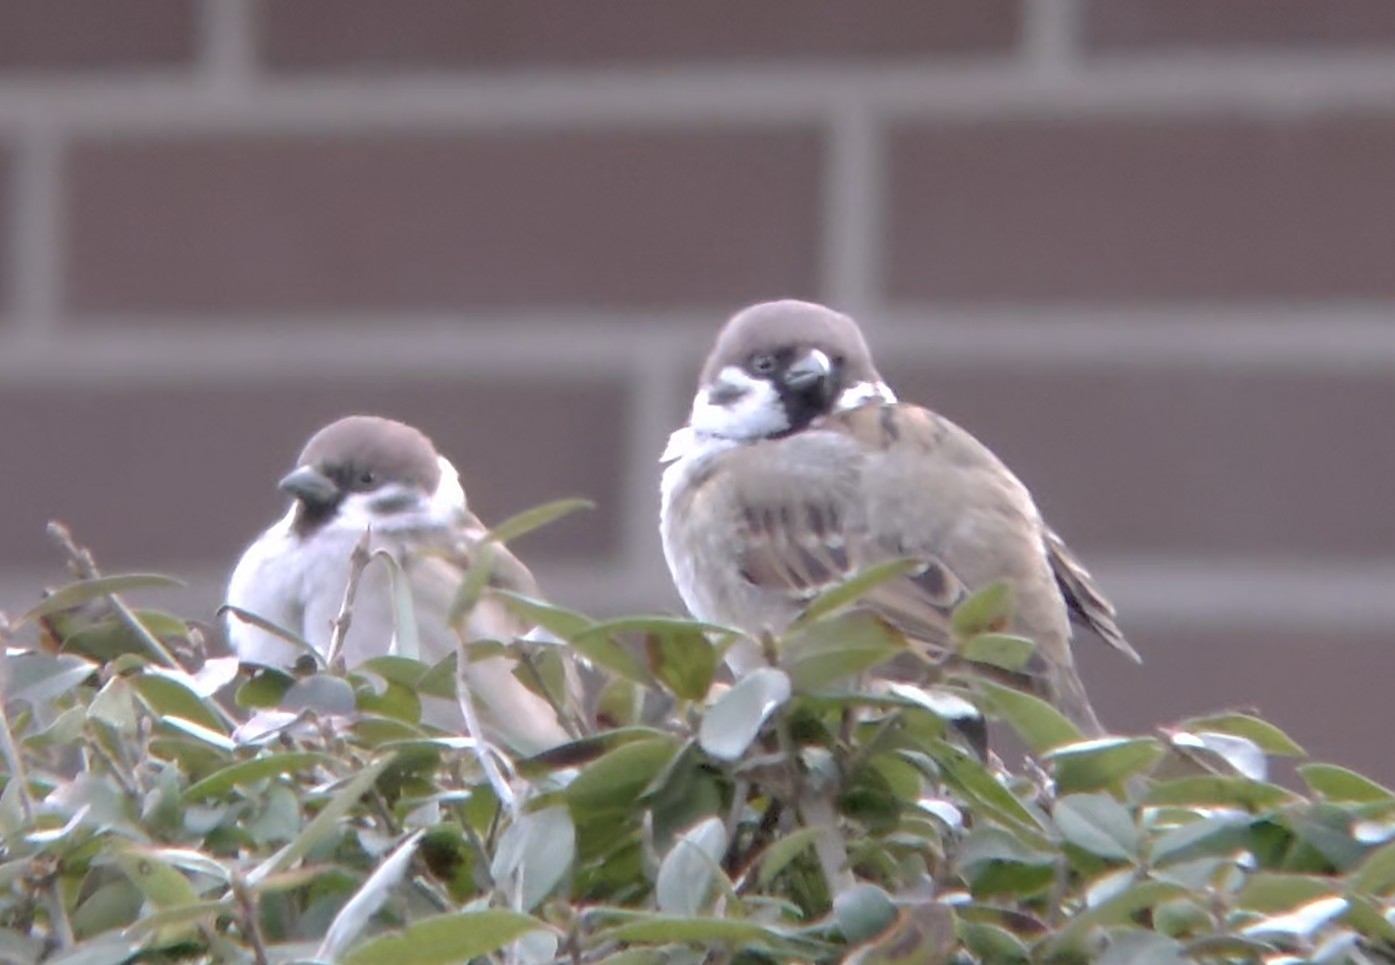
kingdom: Animalia
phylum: Chordata
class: Aves
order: Passeriformes
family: Passeridae
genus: Passer
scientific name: Passer montanus
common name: Eurasian tree sparrow
